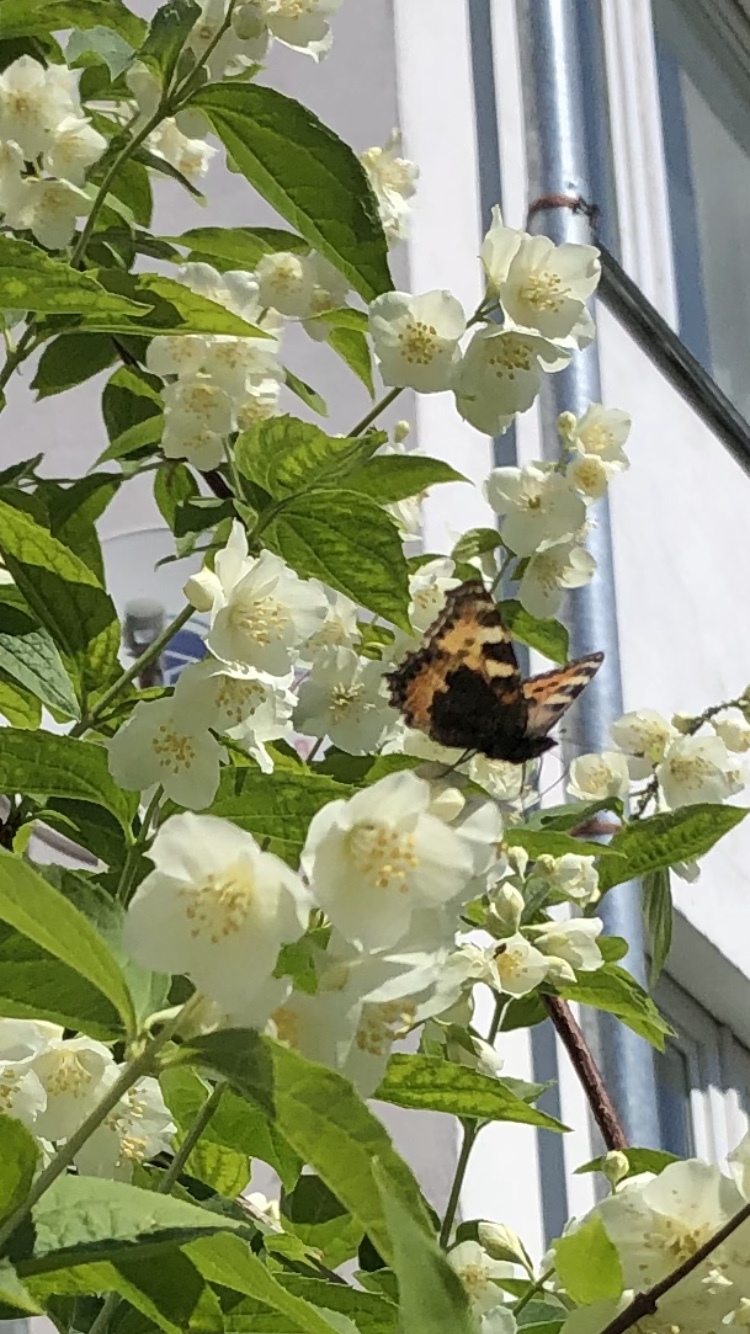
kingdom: Animalia
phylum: Arthropoda
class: Insecta
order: Lepidoptera
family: Nymphalidae
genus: Aglais
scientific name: Aglais urticae
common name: Small tortoiseshell
